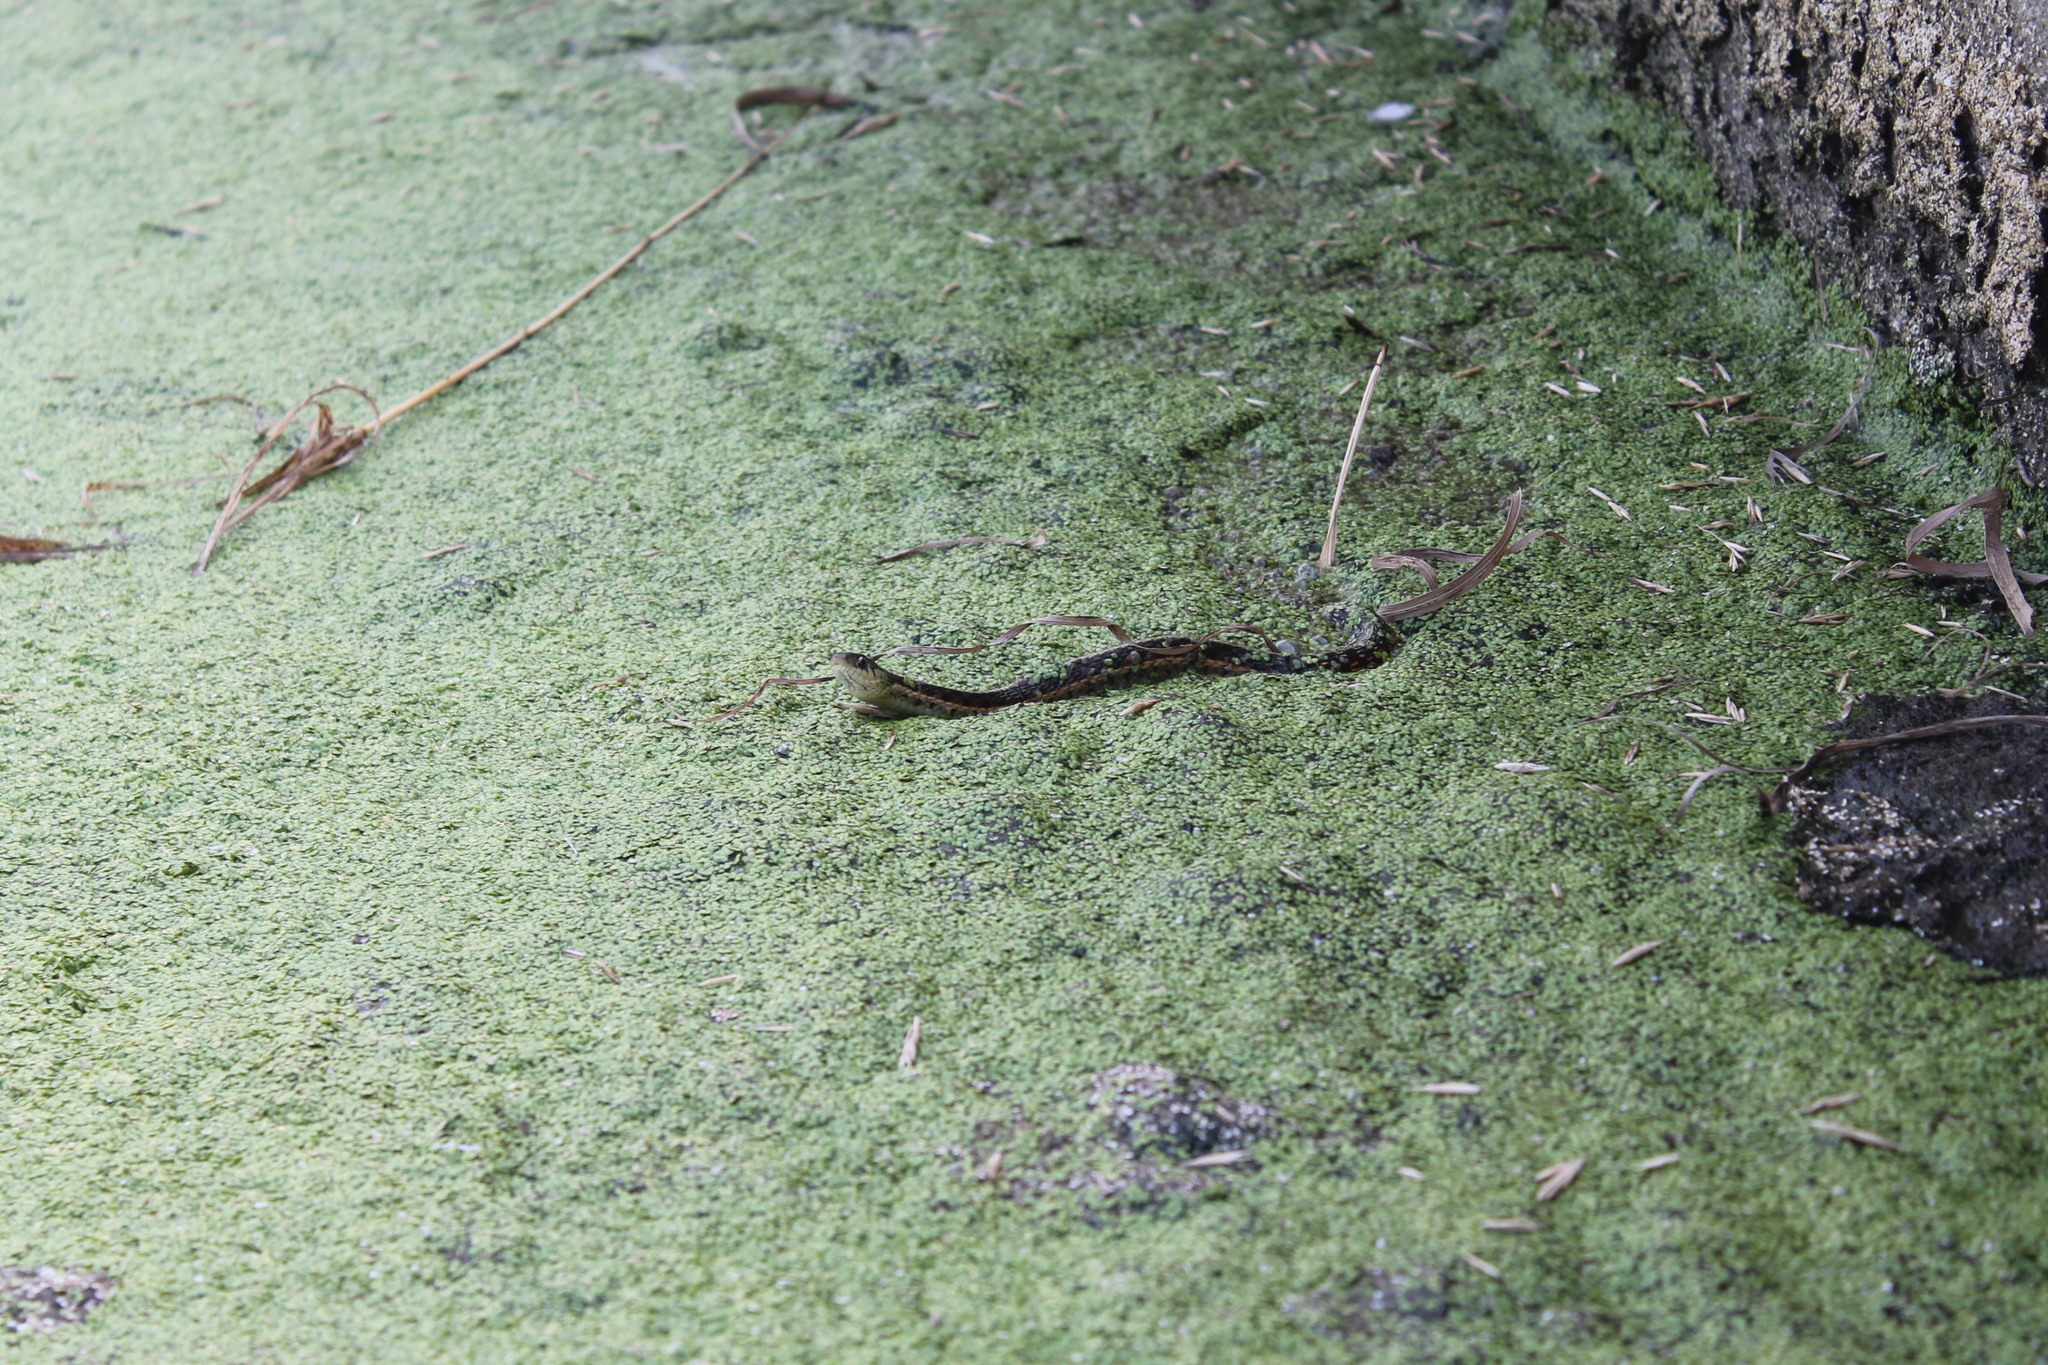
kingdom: Animalia
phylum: Chordata
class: Squamata
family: Colubridae
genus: Thamnophis
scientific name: Thamnophis sirtalis
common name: Common garter snake
